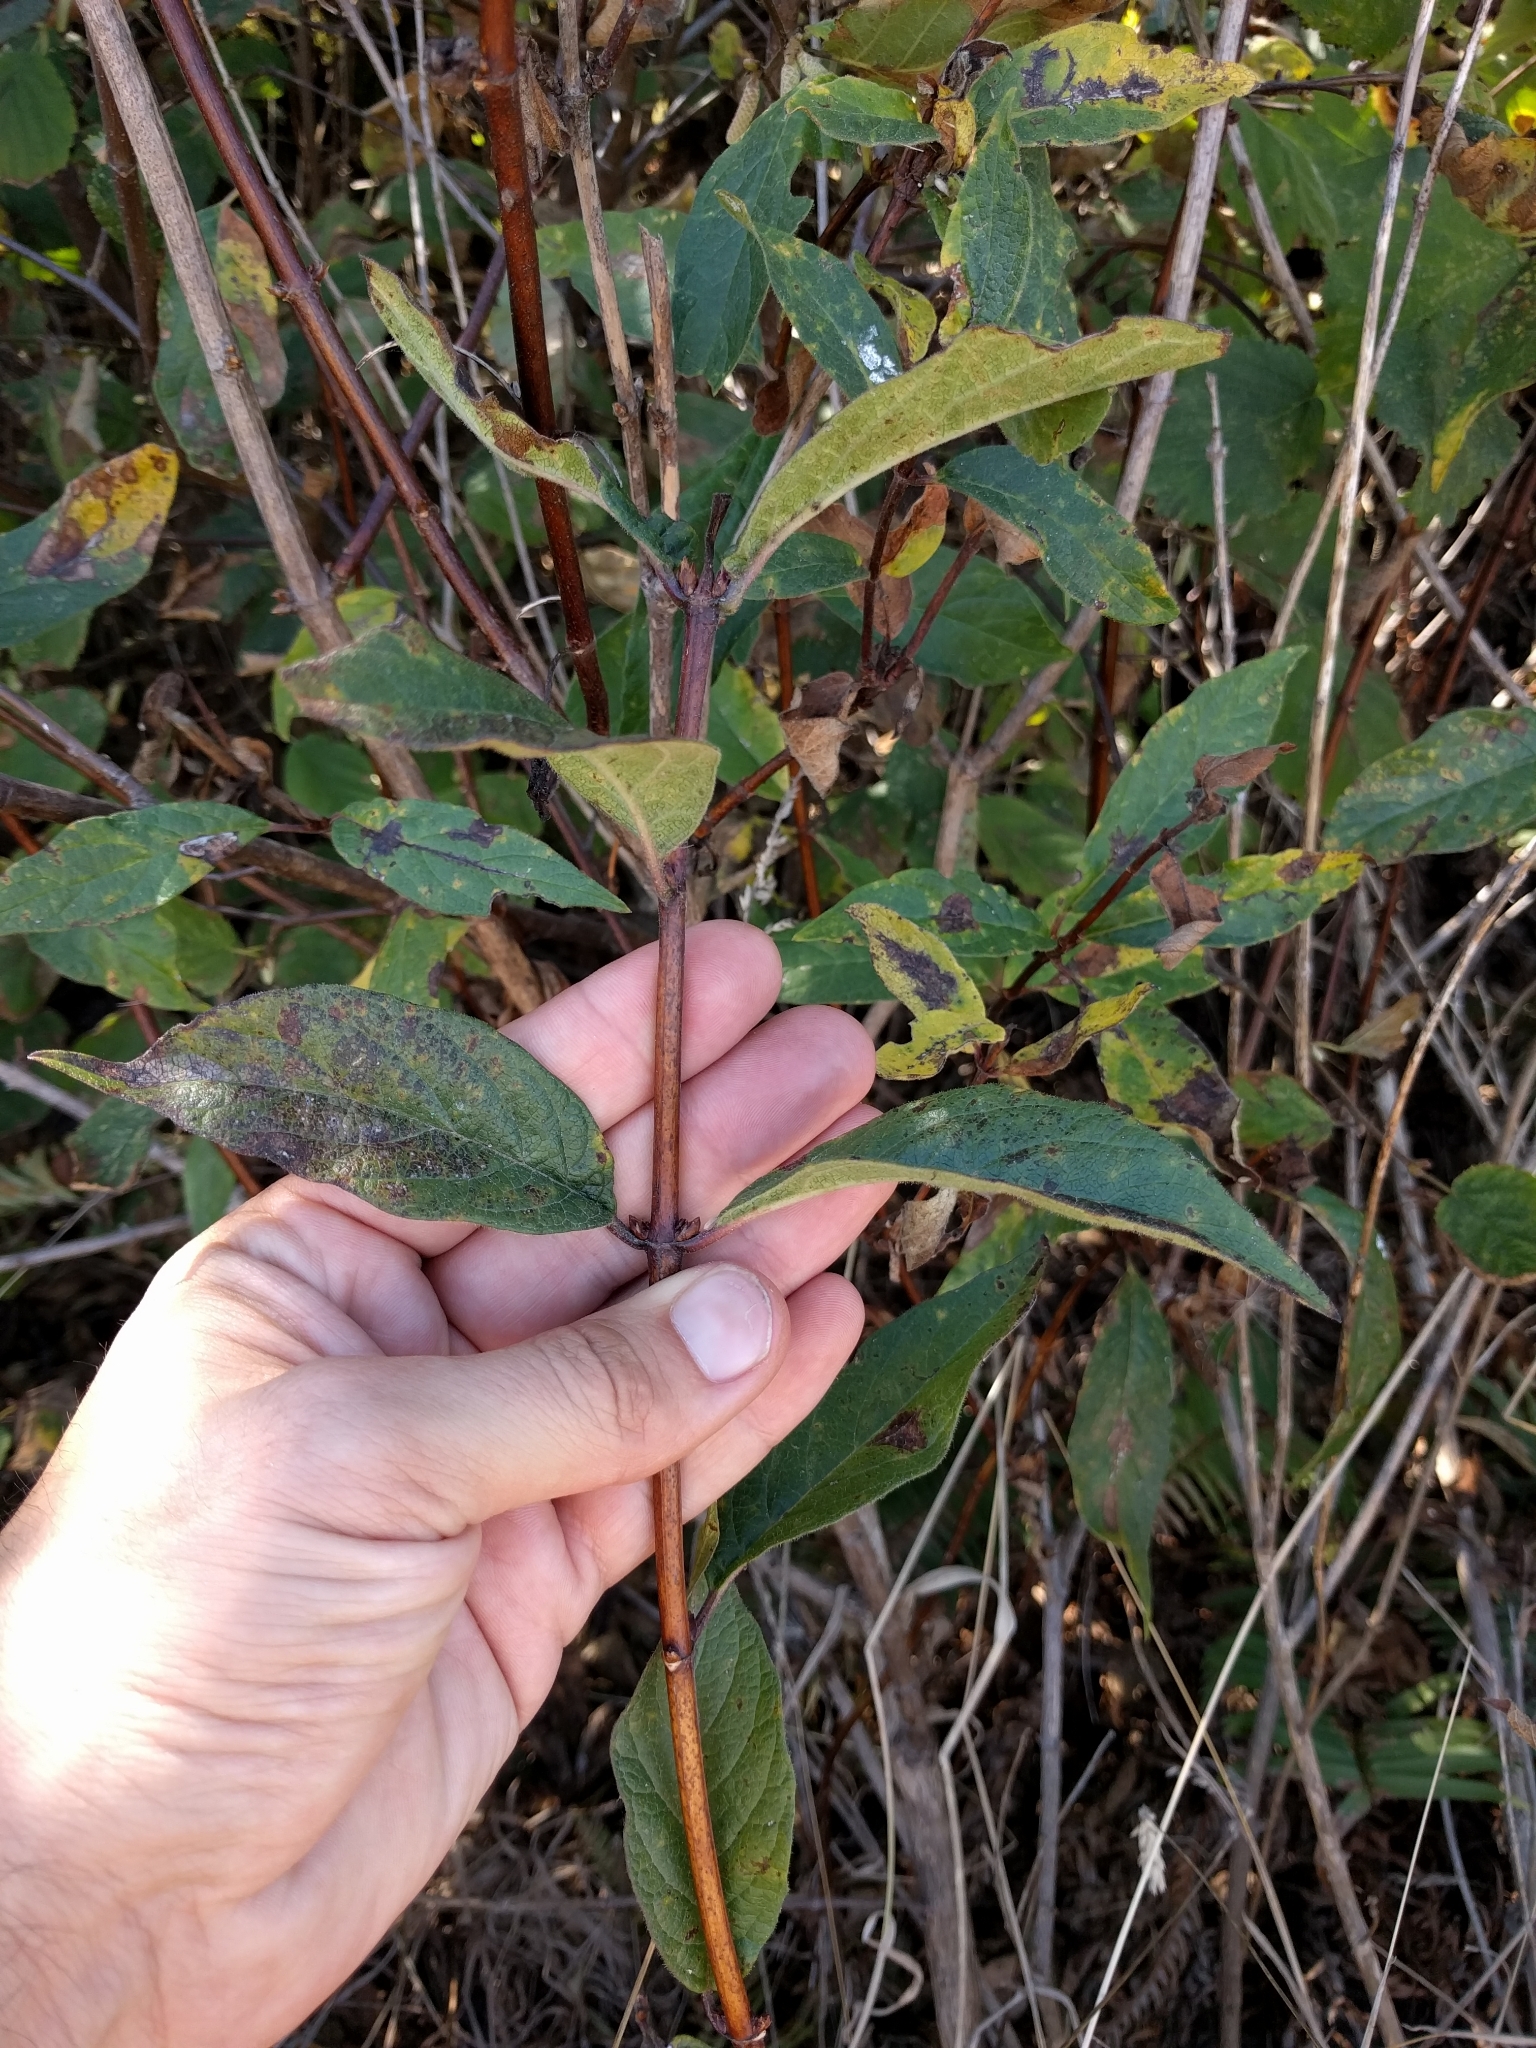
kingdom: Plantae
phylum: Tracheophyta
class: Magnoliopsida
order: Dipsacales
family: Caprifoliaceae
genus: Lonicera
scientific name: Lonicera involucrata
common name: Californian honeysuckle
